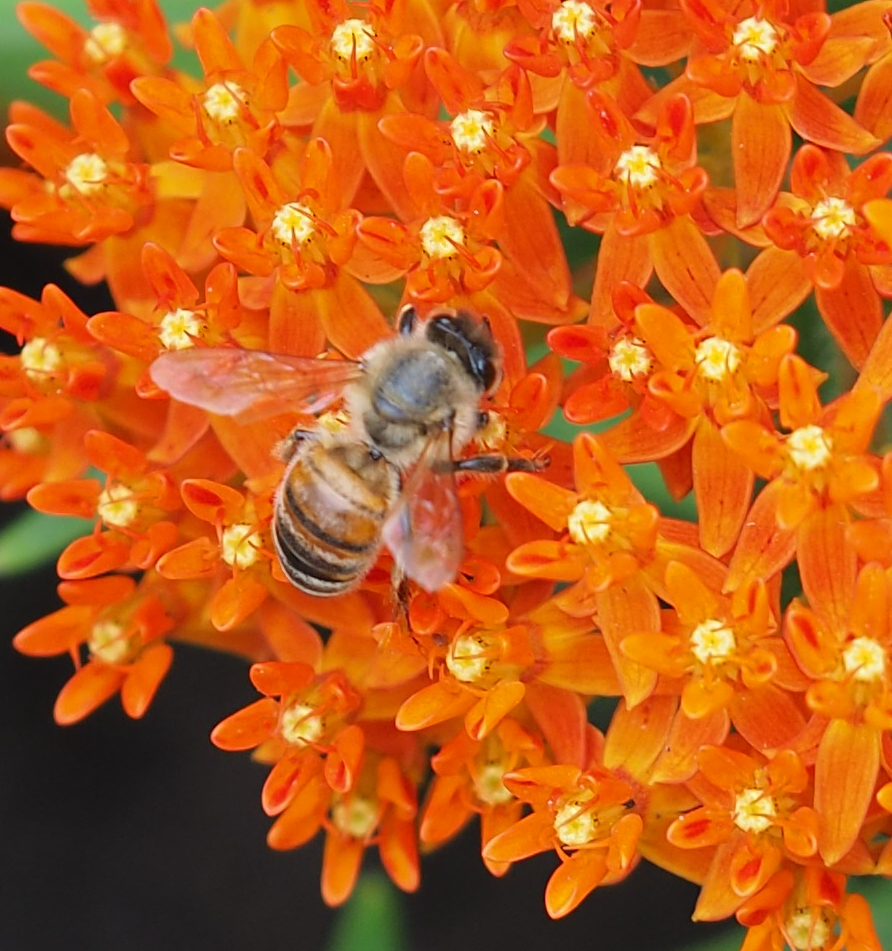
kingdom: Animalia
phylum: Arthropoda
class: Insecta
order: Hymenoptera
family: Apidae
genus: Apis
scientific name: Apis mellifera
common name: Honey bee
